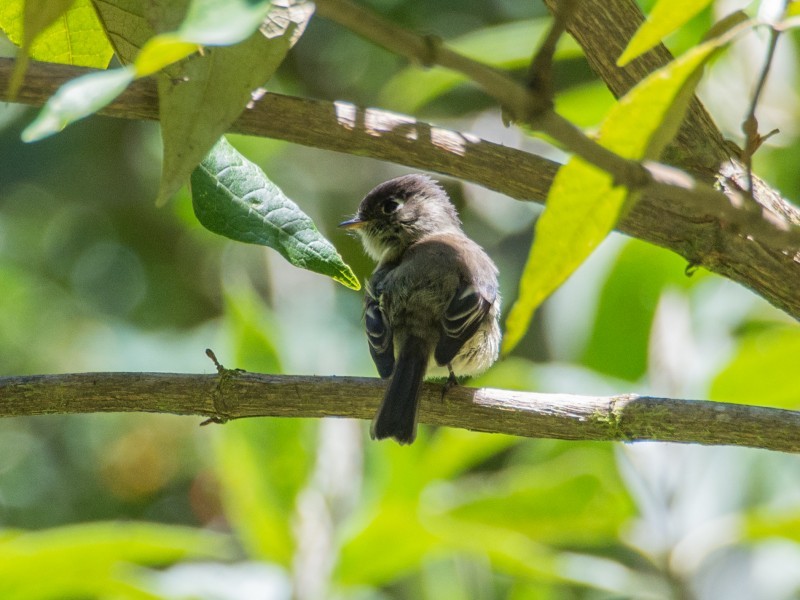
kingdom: Animalia
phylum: Chordata
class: Aves
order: Passeriformes
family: Tyrannidae
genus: Empidonax
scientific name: Empidonax atriceps
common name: Black-capped flycatcher
